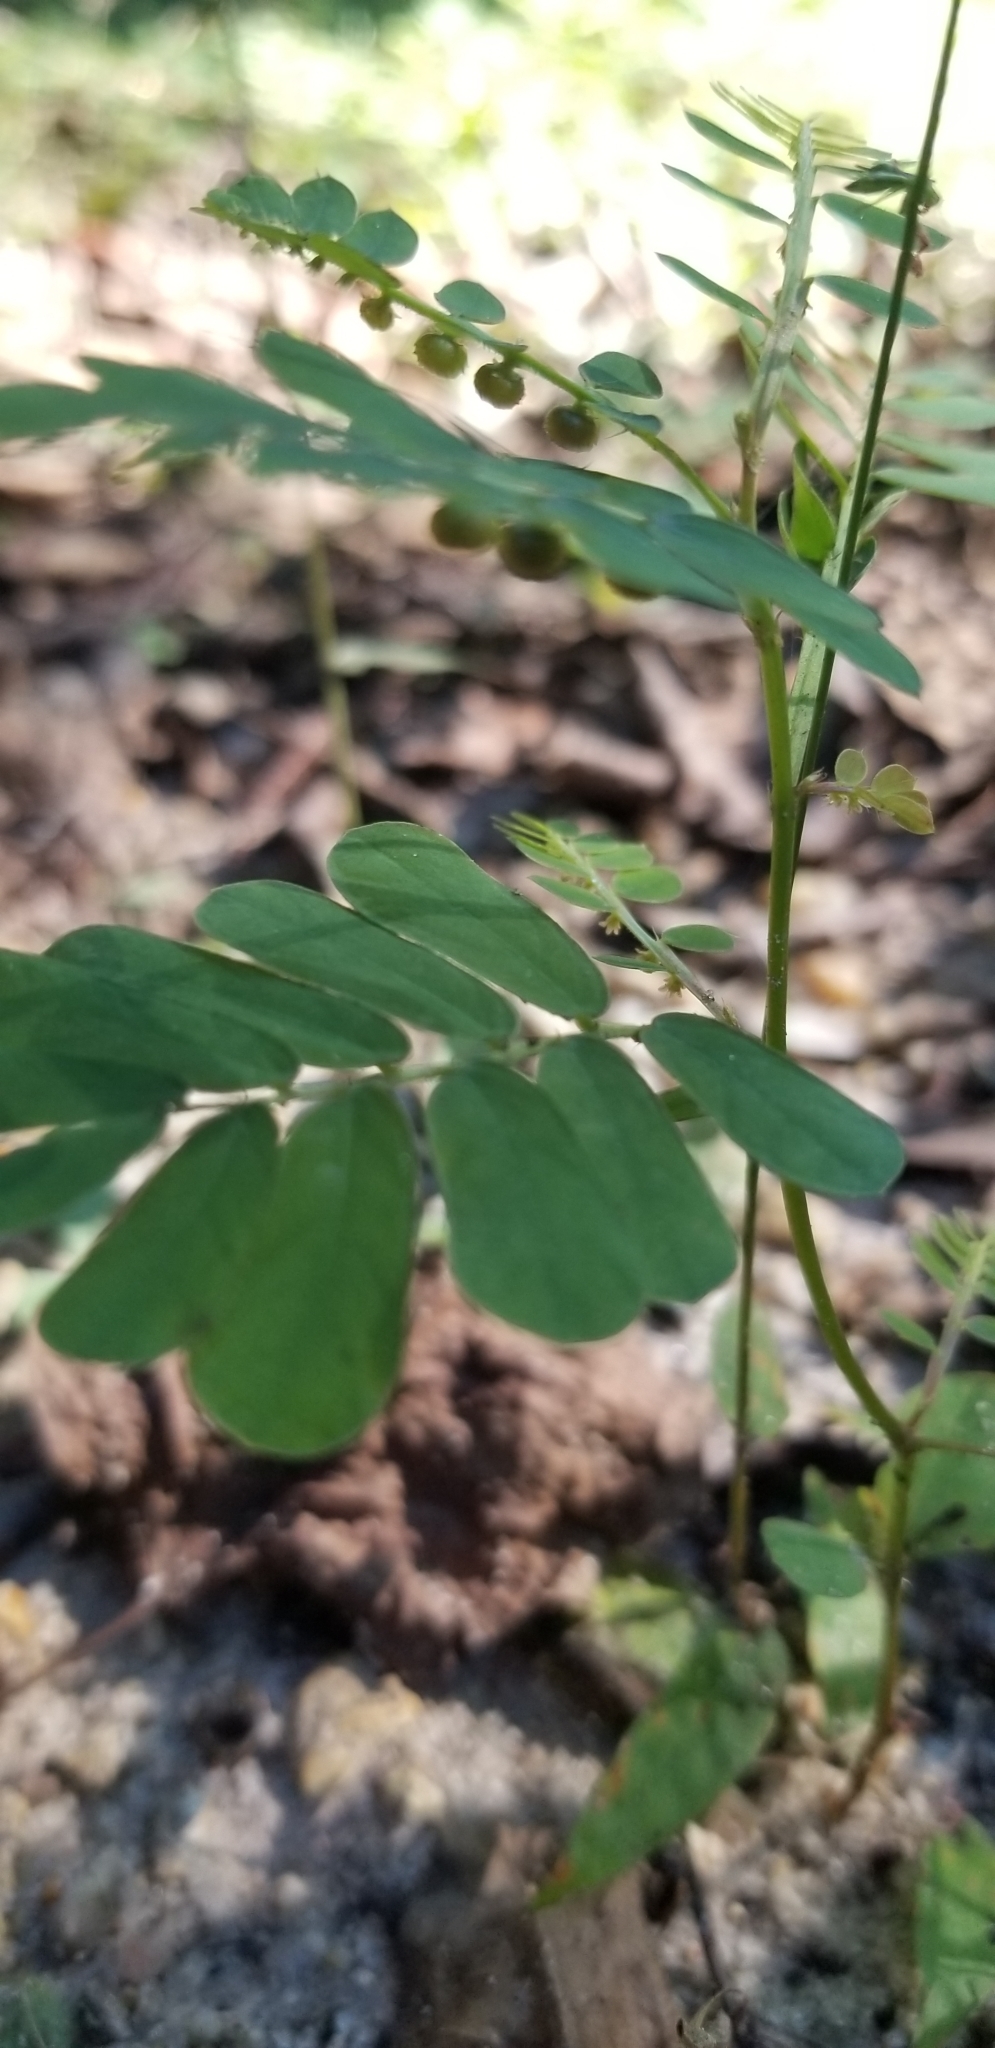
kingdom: Plantae
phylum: Tracheophyta
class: Magnoliopsida
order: Malpighiales
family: Phyllanthaceae
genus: Phyllanthus
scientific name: Phyllanthus urinaria
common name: Chamber bitter
